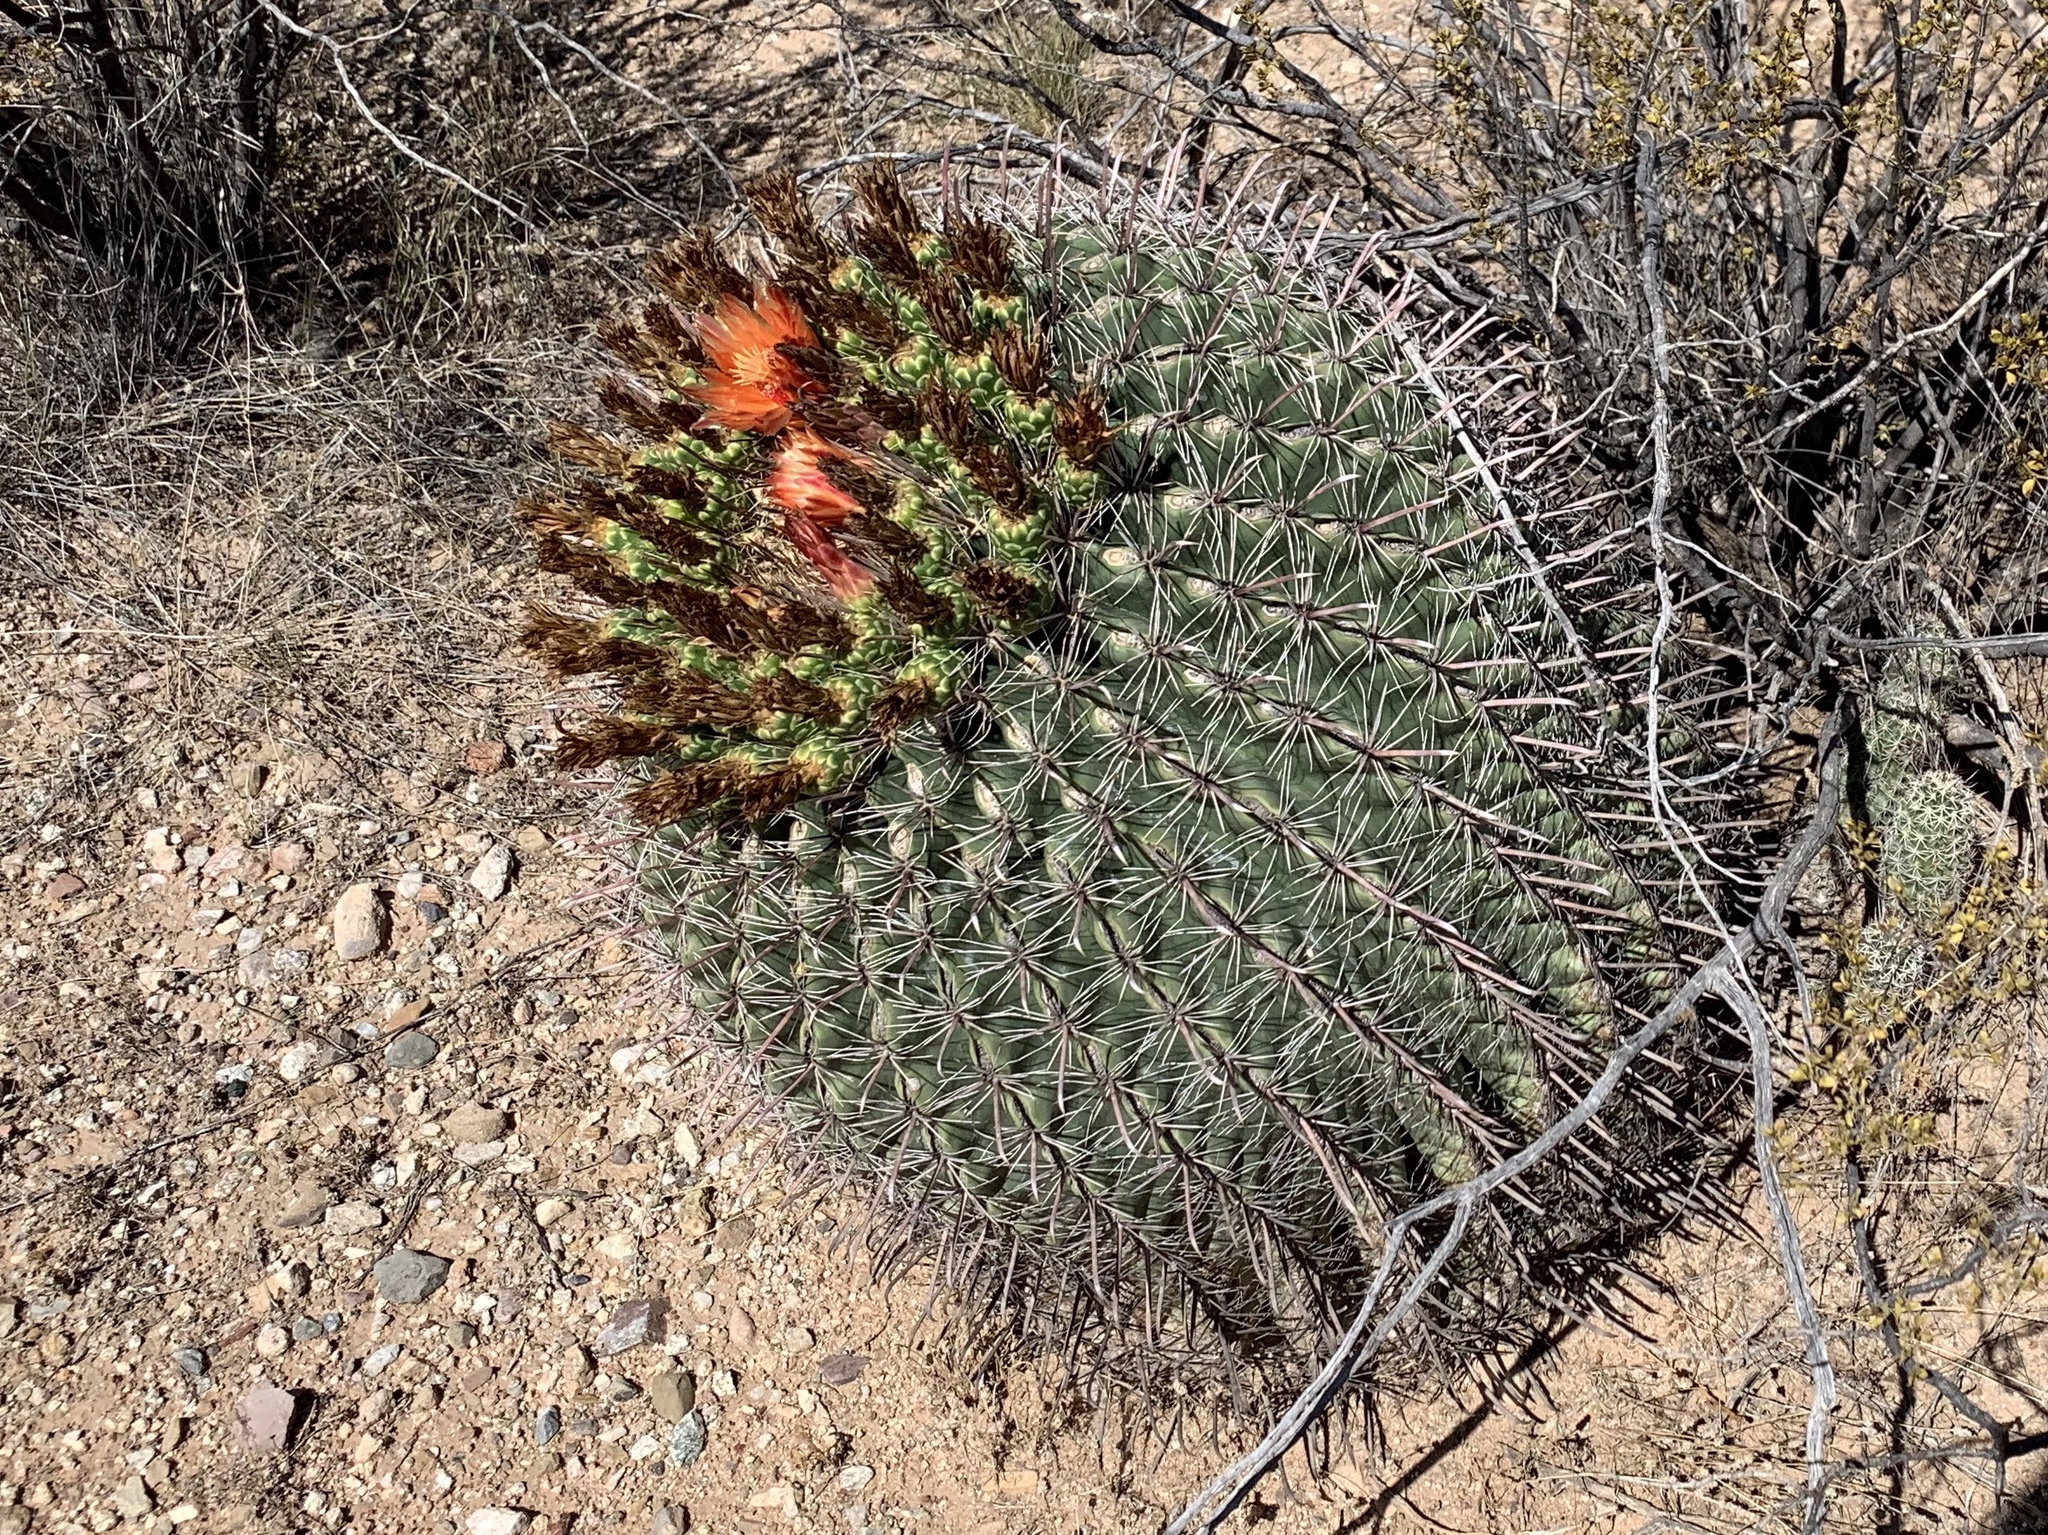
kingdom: Plantae
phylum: Tracheophyta
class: Magnoliopsida
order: Caryophyllales
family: Cactaceae
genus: Ferocactus
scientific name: Ferocactus wislizeni
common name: Candy barrel cactus
